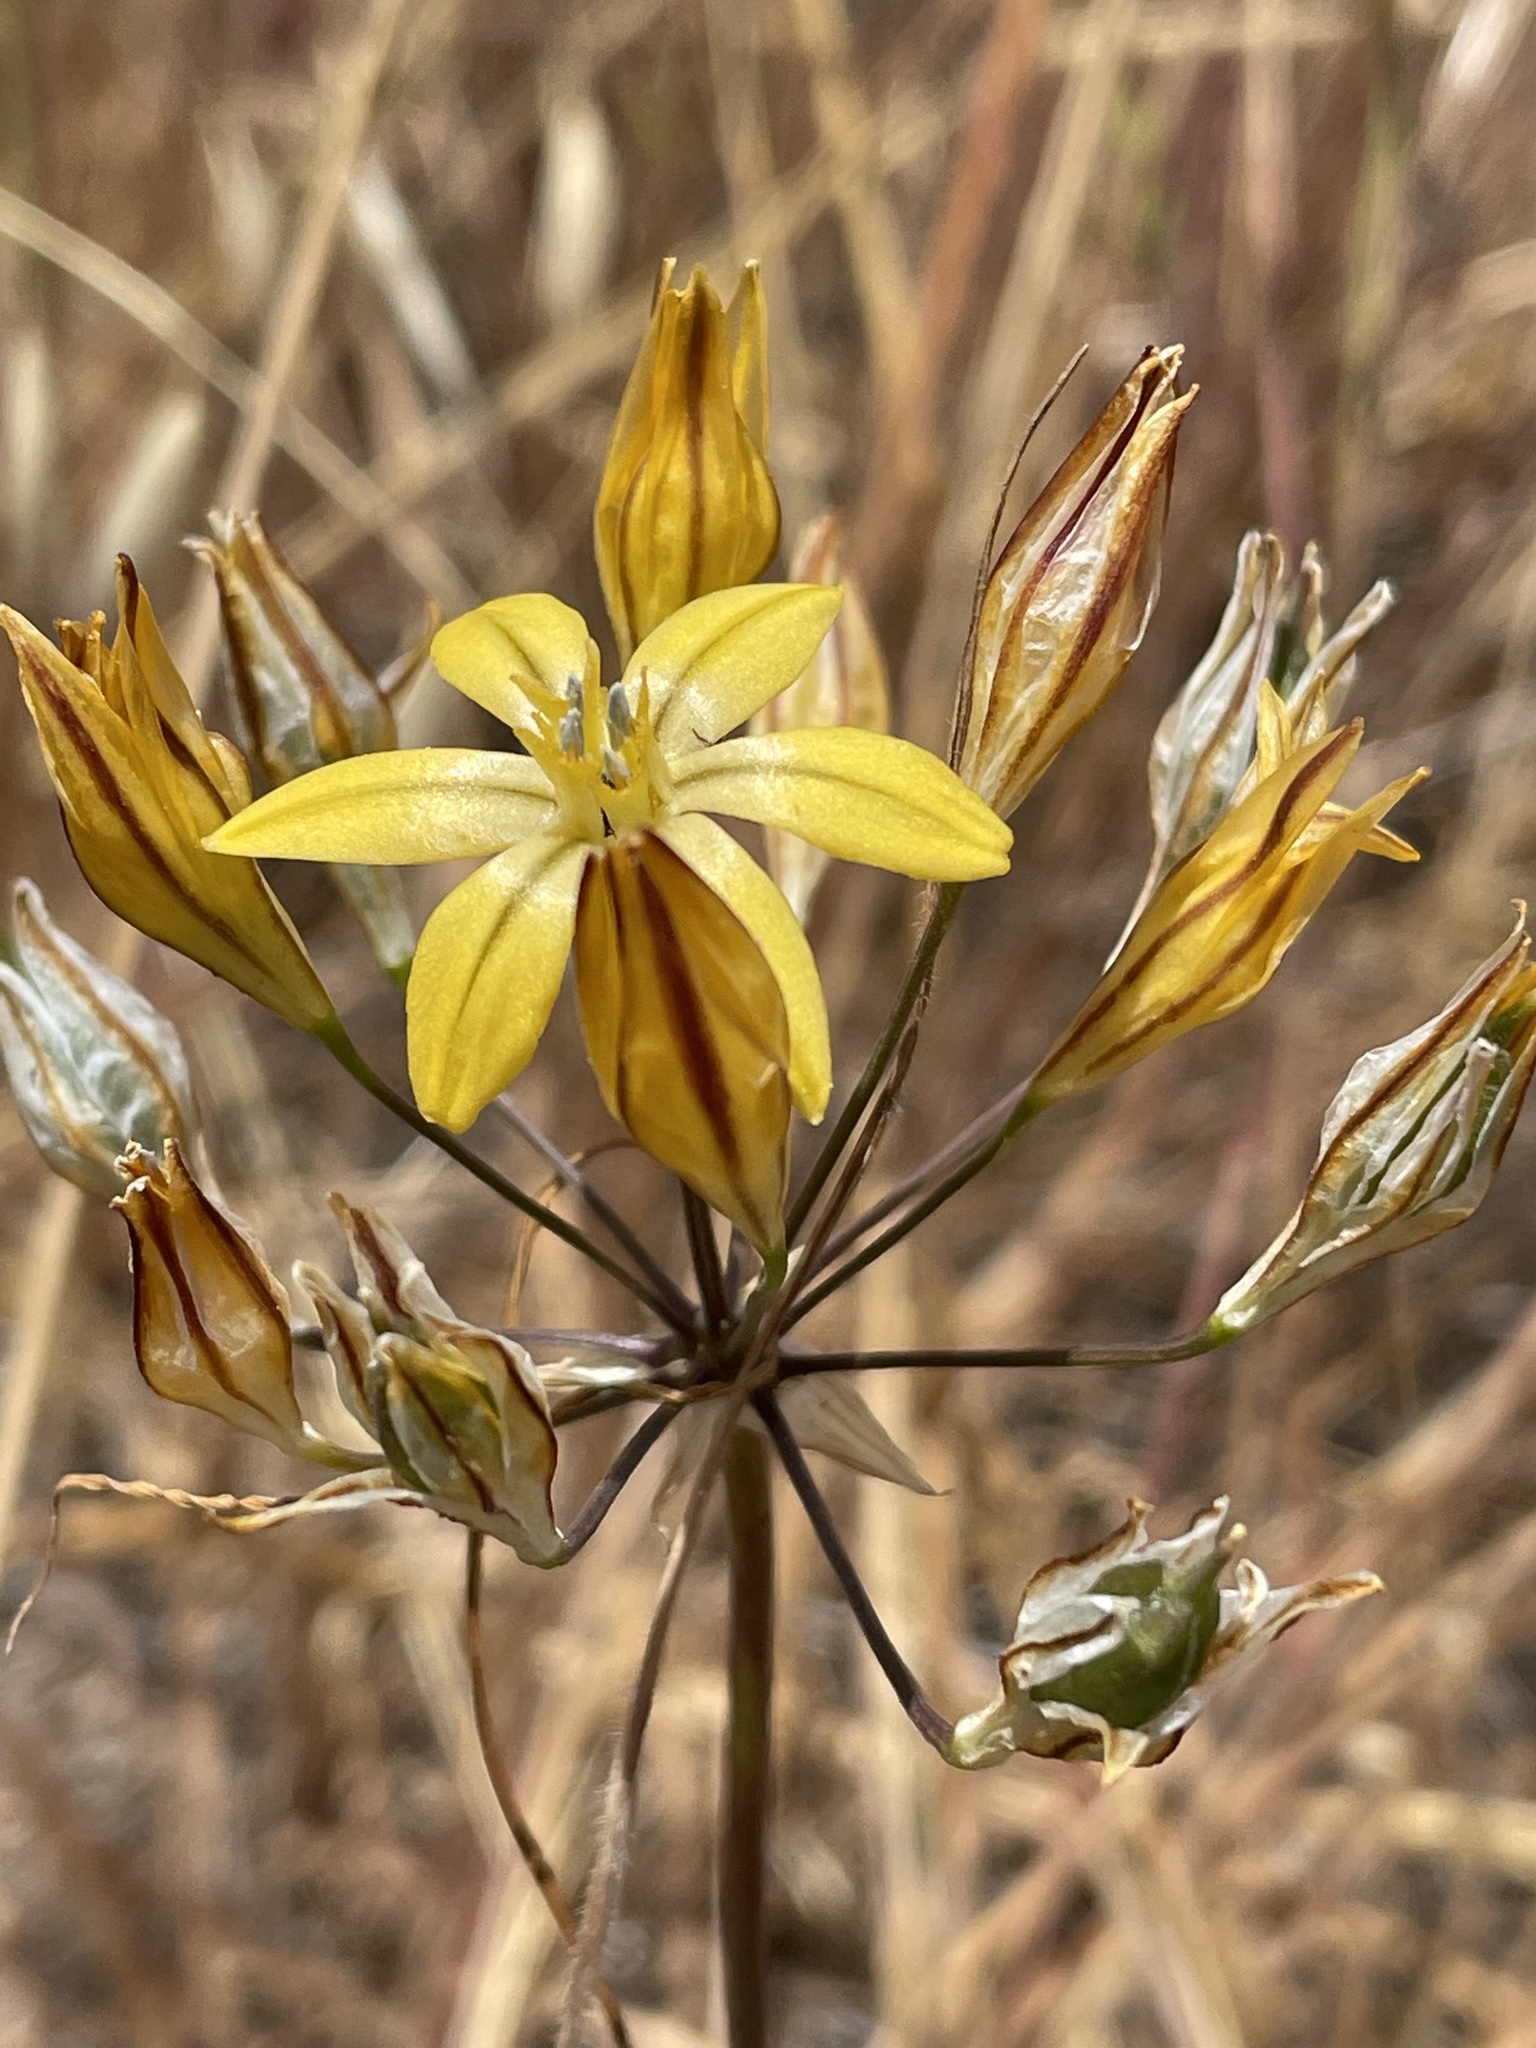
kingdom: Plantae
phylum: Tracheophyta
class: Liliopsida
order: Asparagales
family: Asparagaceae
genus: Triteleia
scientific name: Triteleia ixioides
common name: Yellow-brodiaea
